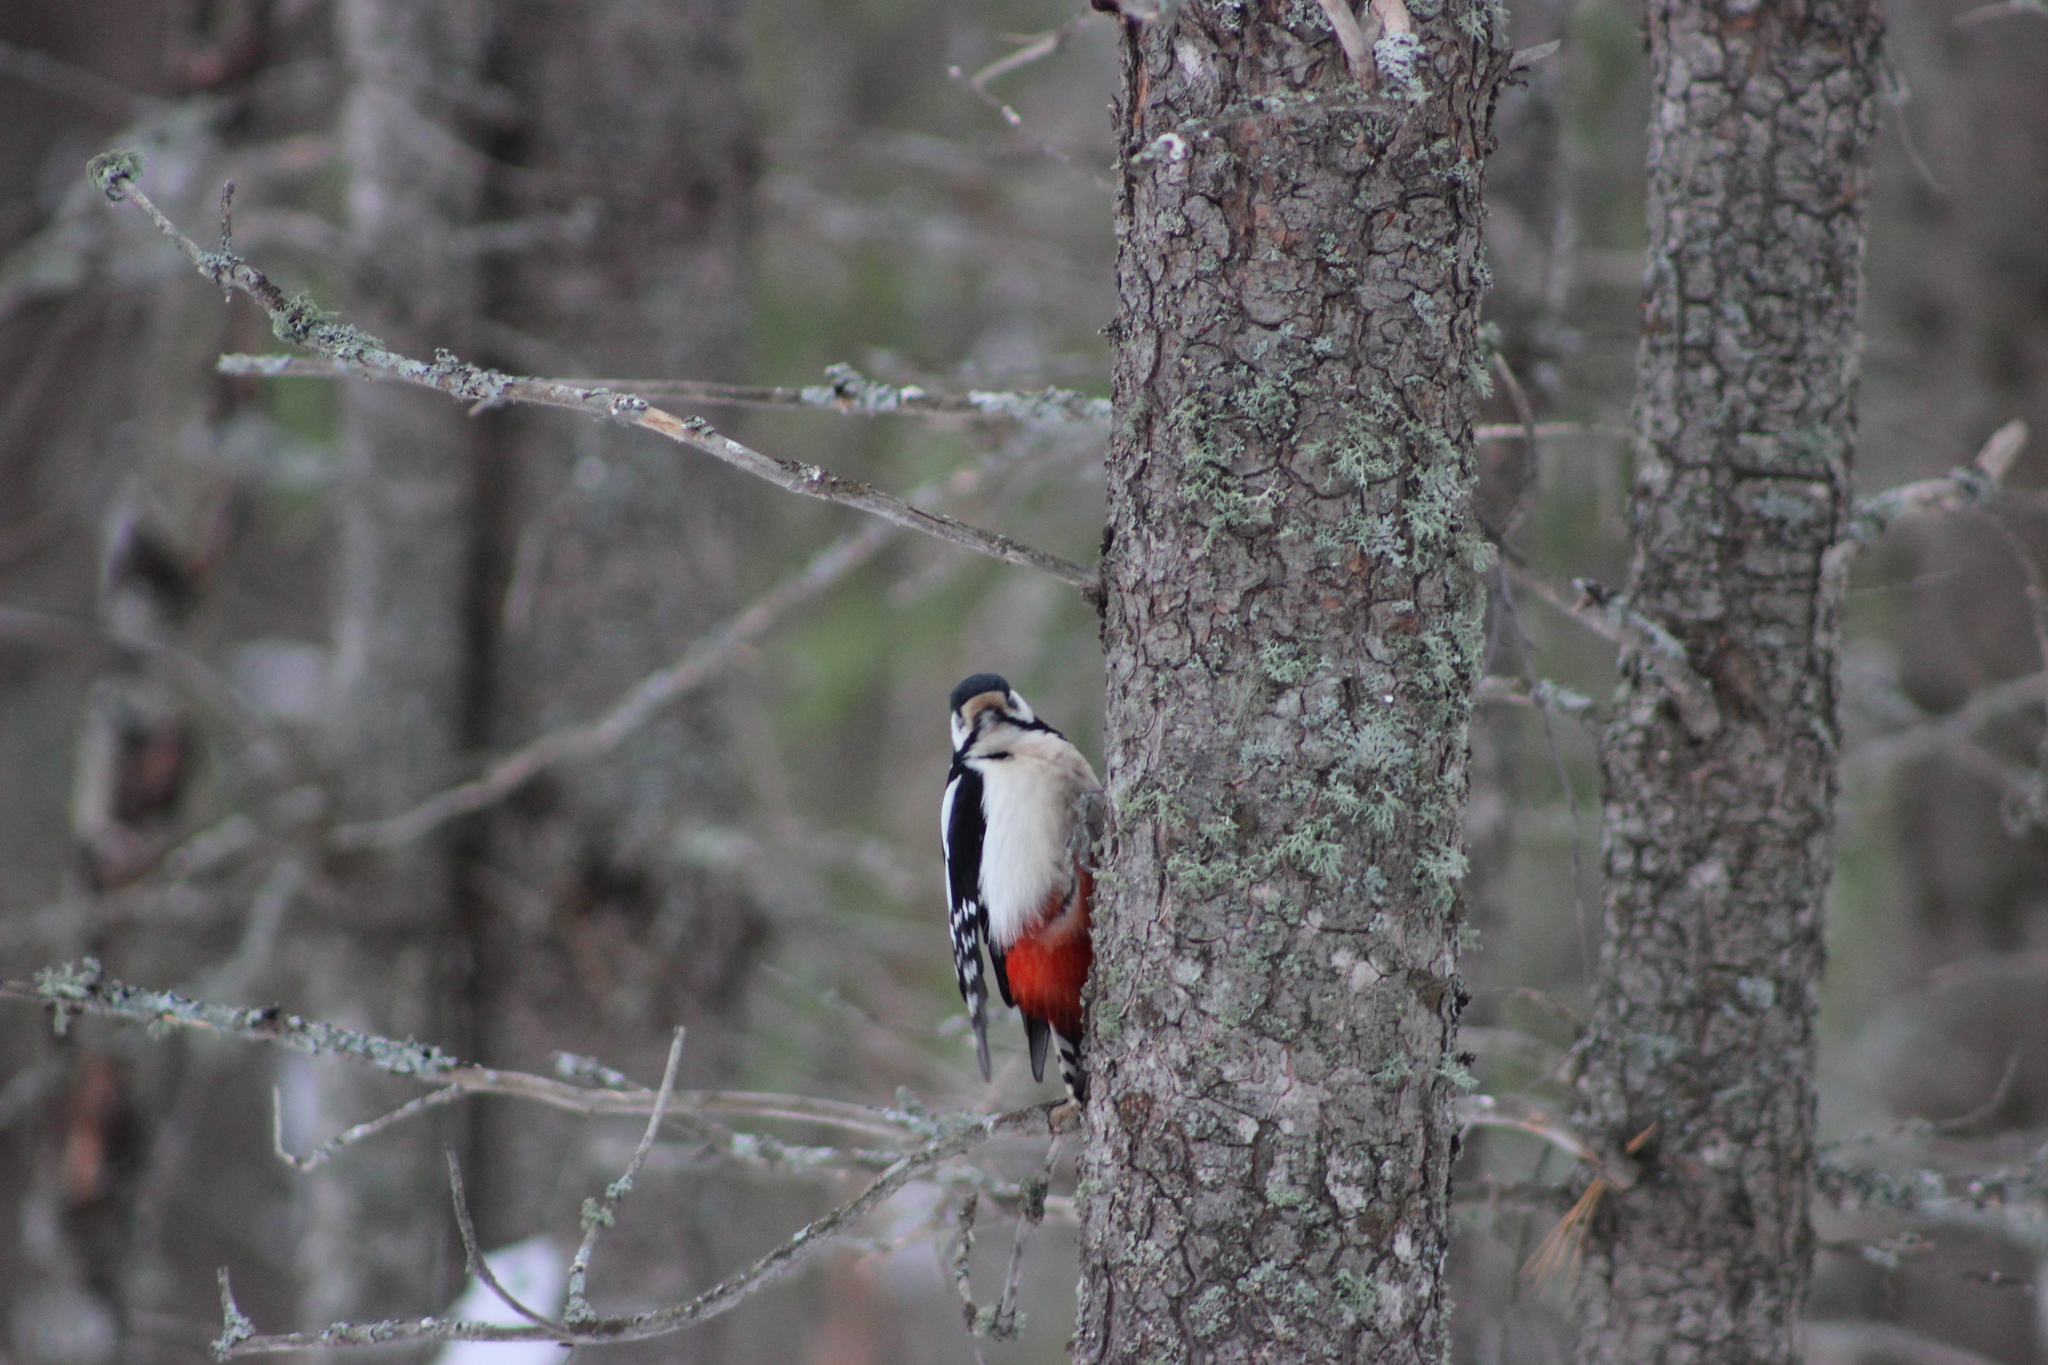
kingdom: Animalia
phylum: Chordata
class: Aves
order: Piciformes
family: Picidae
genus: Dendrocopos
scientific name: Dendrocopos major
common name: Great spotted woodpecker
